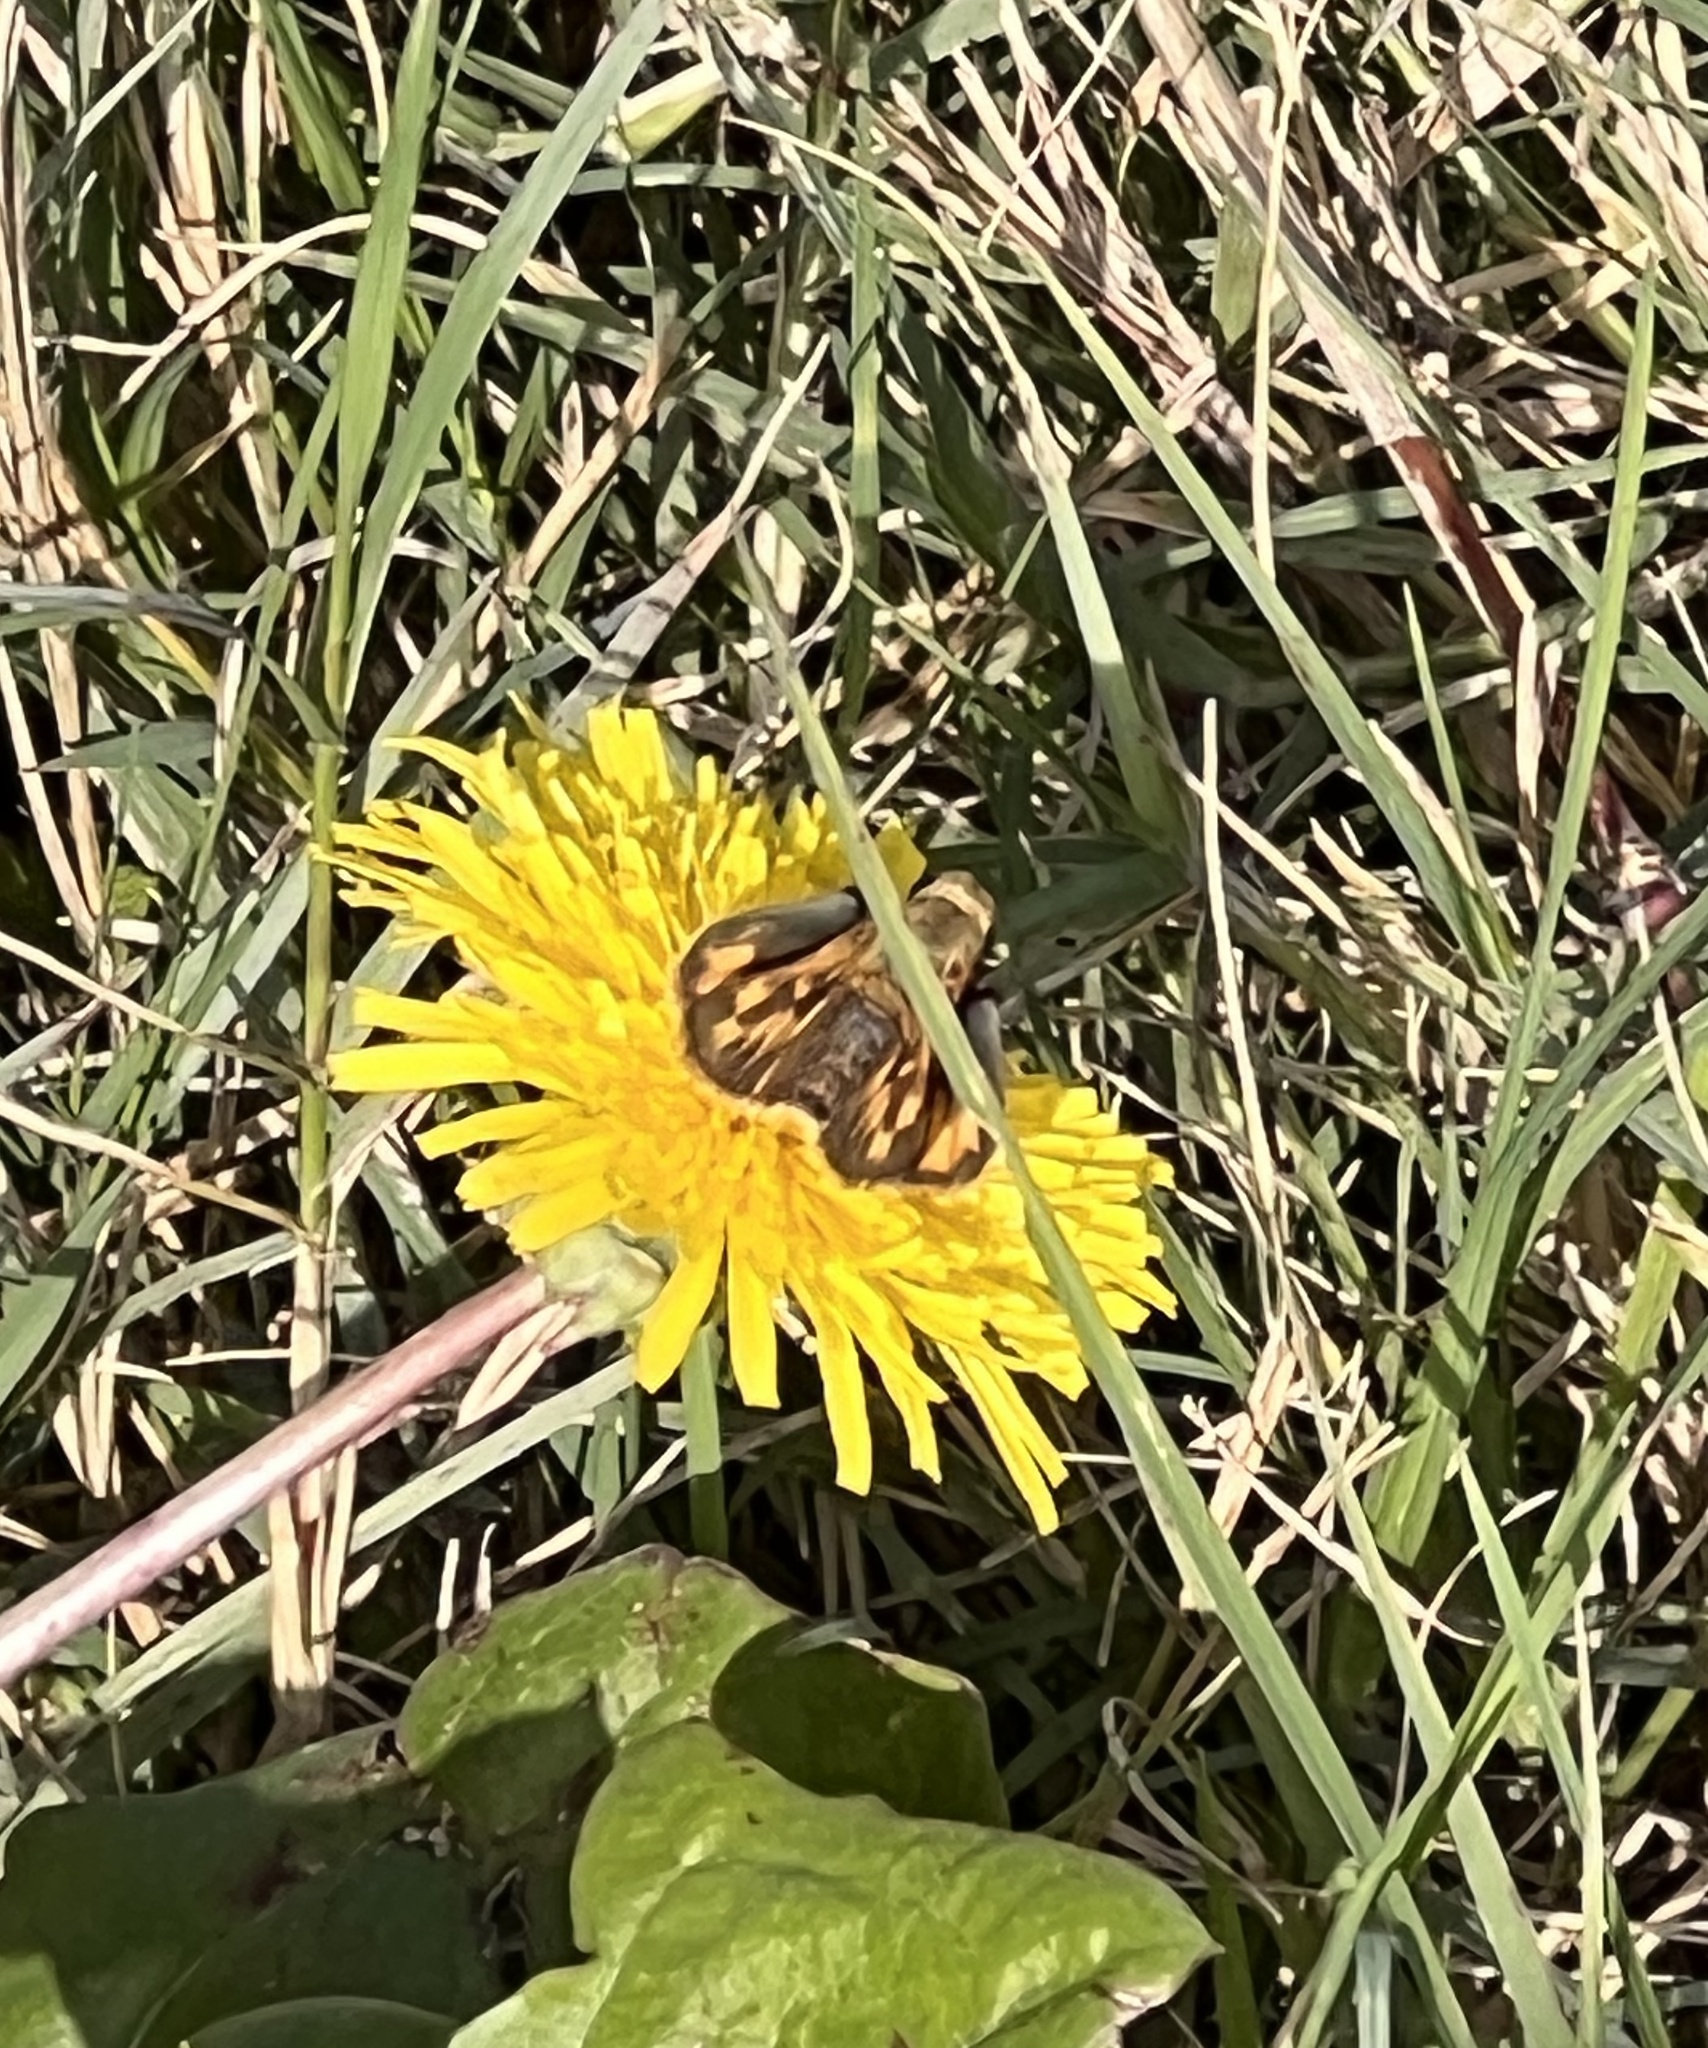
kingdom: Animalia
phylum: Arthropoda
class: Insecta
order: Lepidoptera
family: Hesperiidae
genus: Hylephila
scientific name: Hylephila phyleus
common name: Fiery skipper
